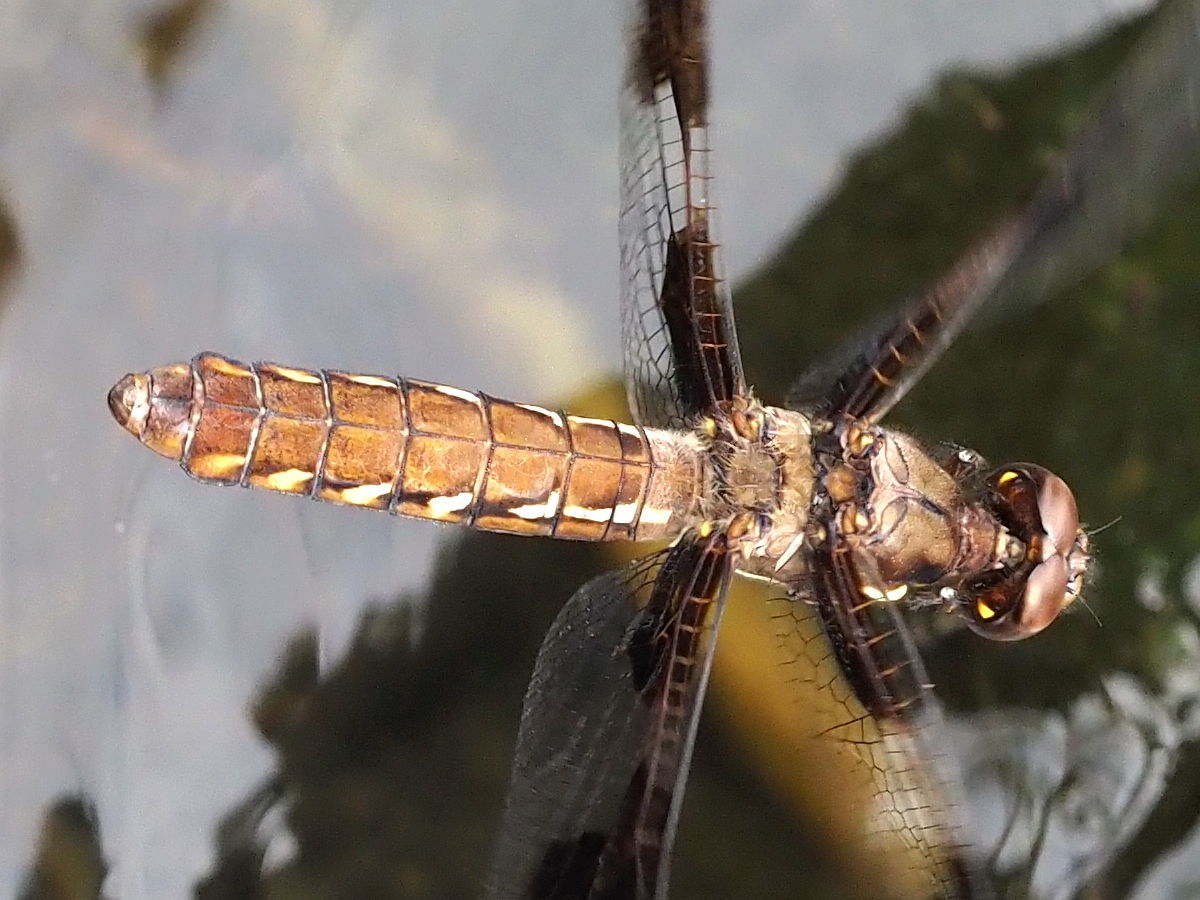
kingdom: Animalia
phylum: Arthropoda
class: Insecta
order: Odonata
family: Libellulidae
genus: Plathemis
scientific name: Plathemis lydia
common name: Common whitetail
